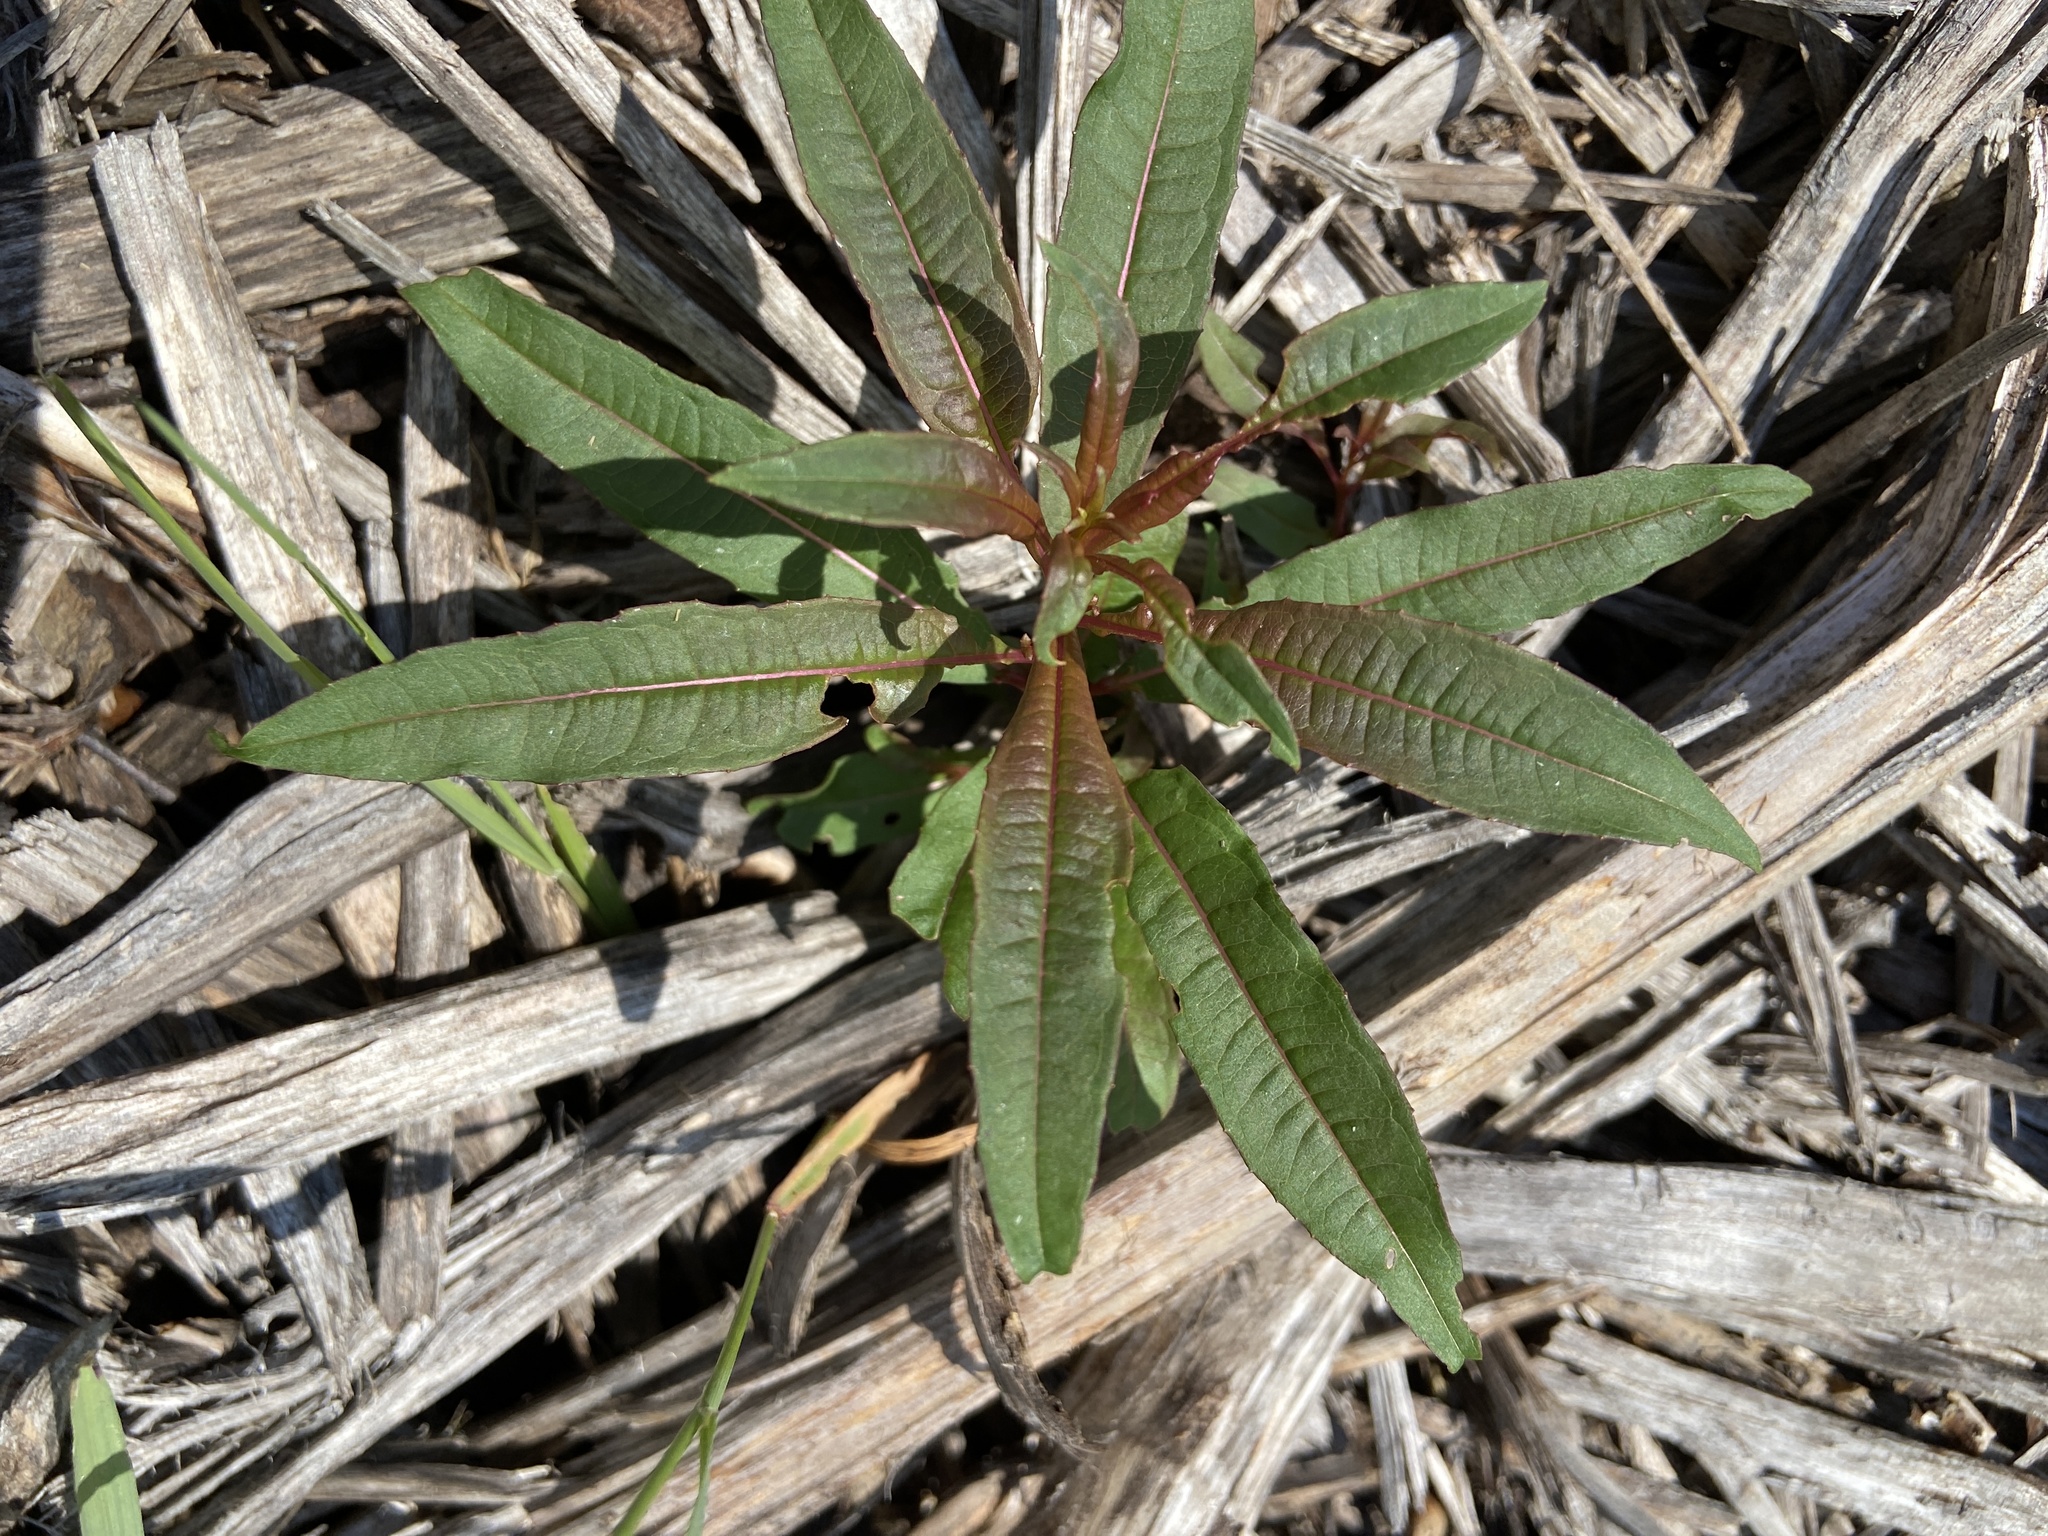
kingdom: Plantae
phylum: Tracheophyta
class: Magnoliopsida
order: Myrtales
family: Onagraceae
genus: Chamaenerion
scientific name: Chamaenerion angustifolium
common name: Fireweed
